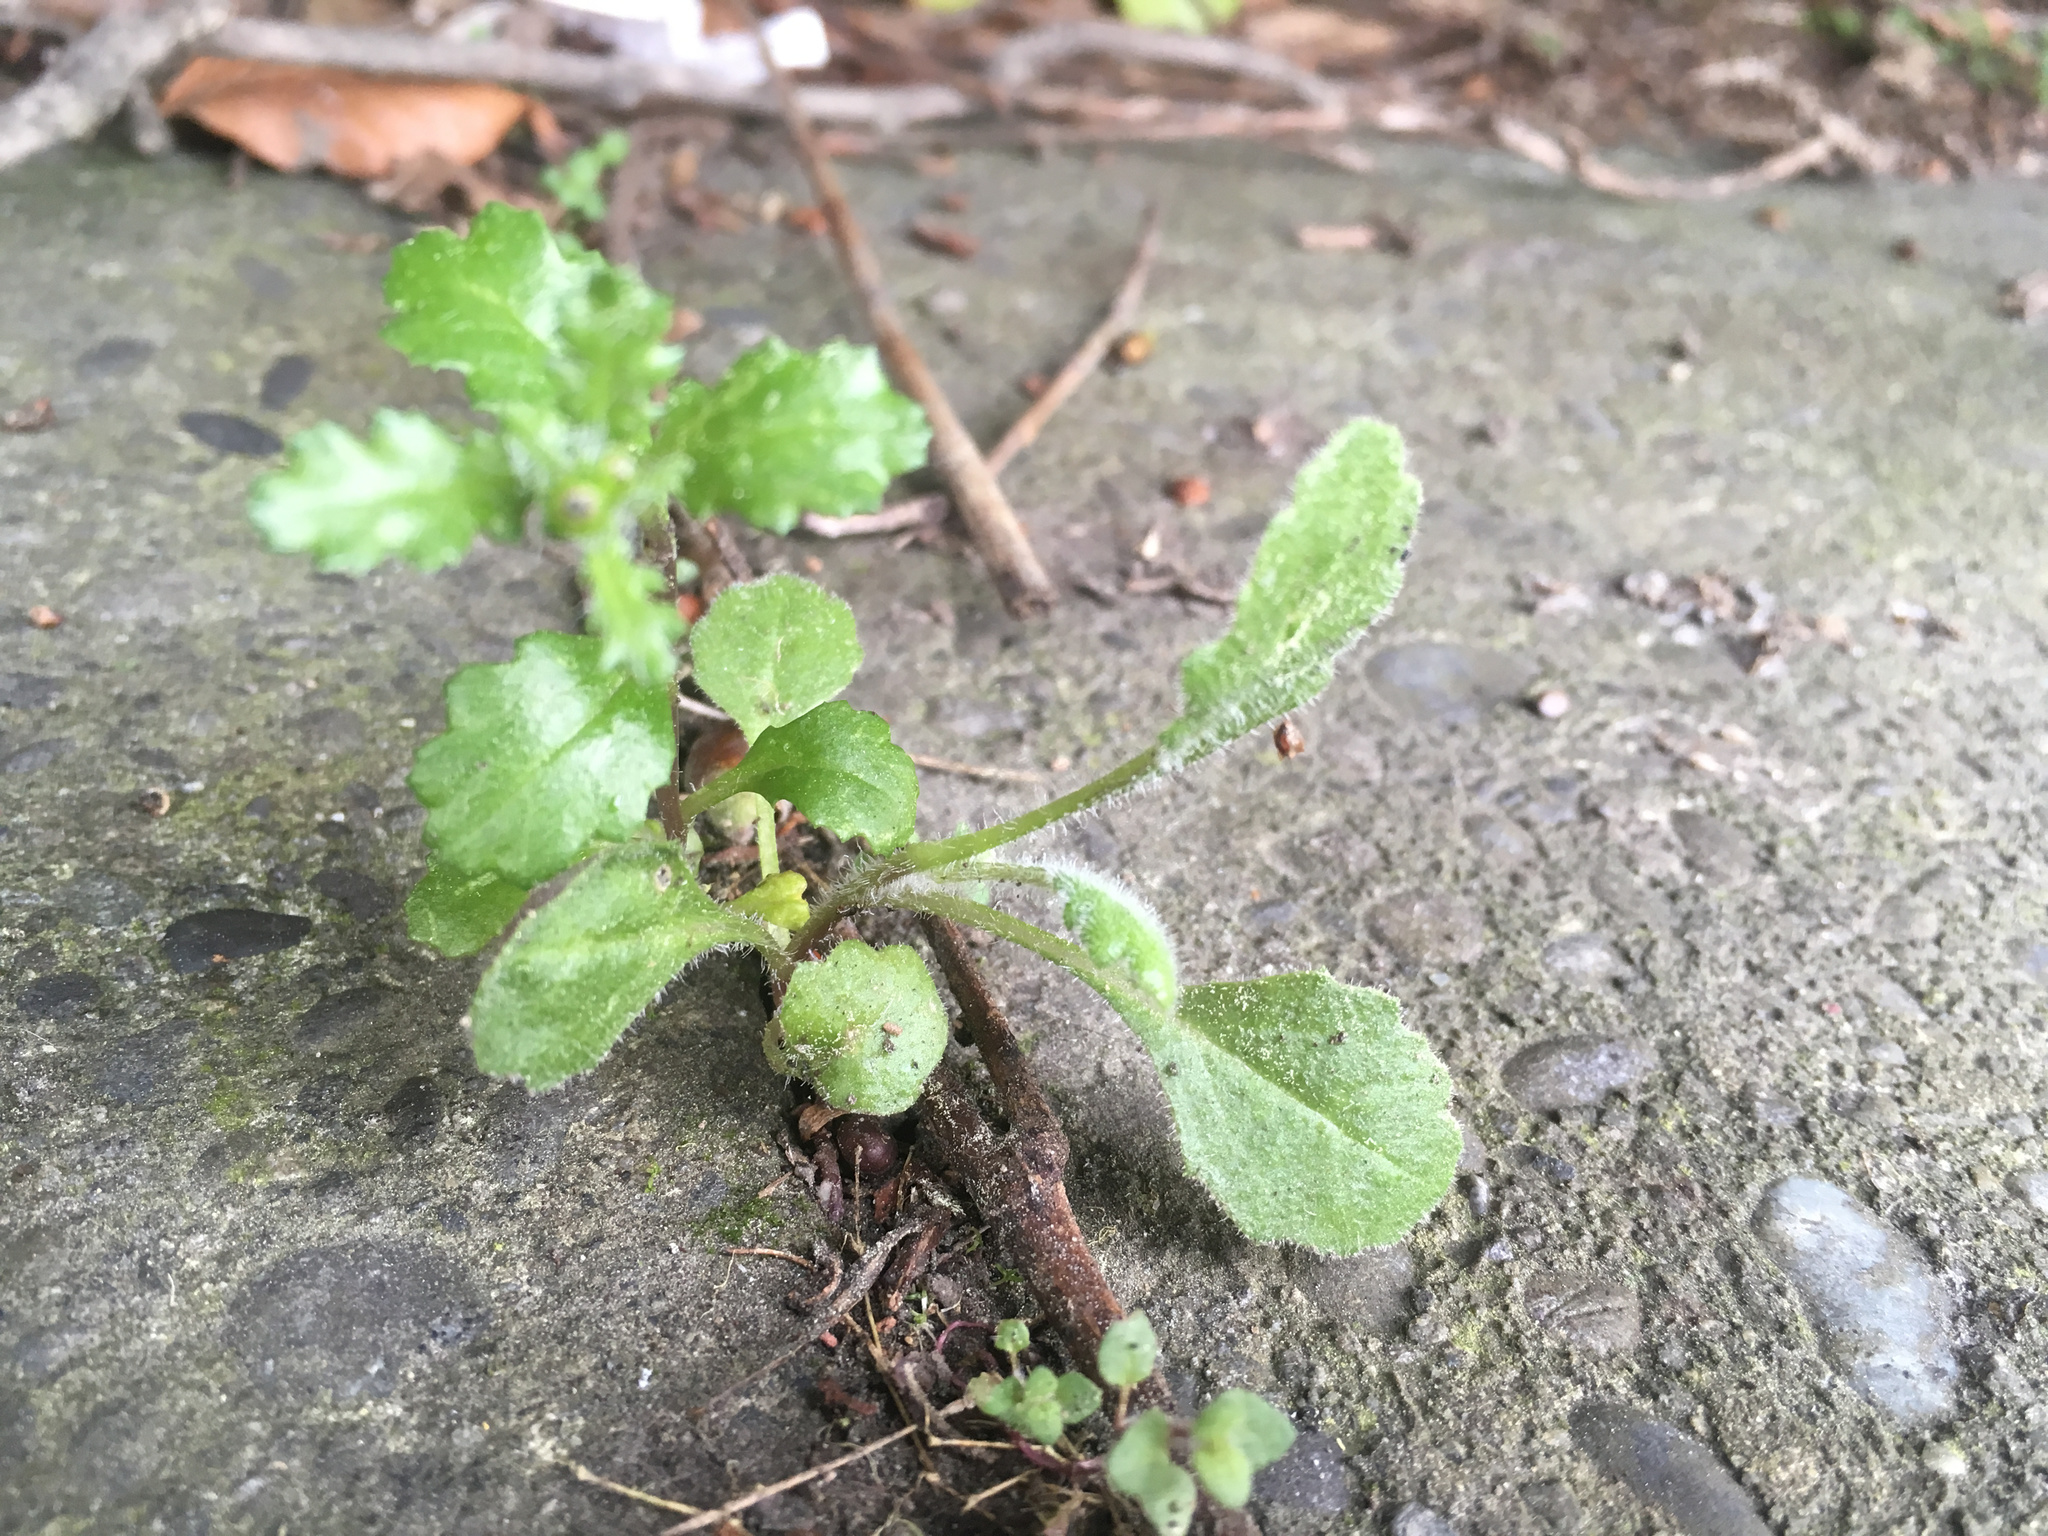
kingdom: Plantae
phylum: Tracheophyta
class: Magnoliopsida
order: Asterales
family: Asteraceae
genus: Senecio
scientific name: Senecio glomeratus
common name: Cutleaf burnweed
